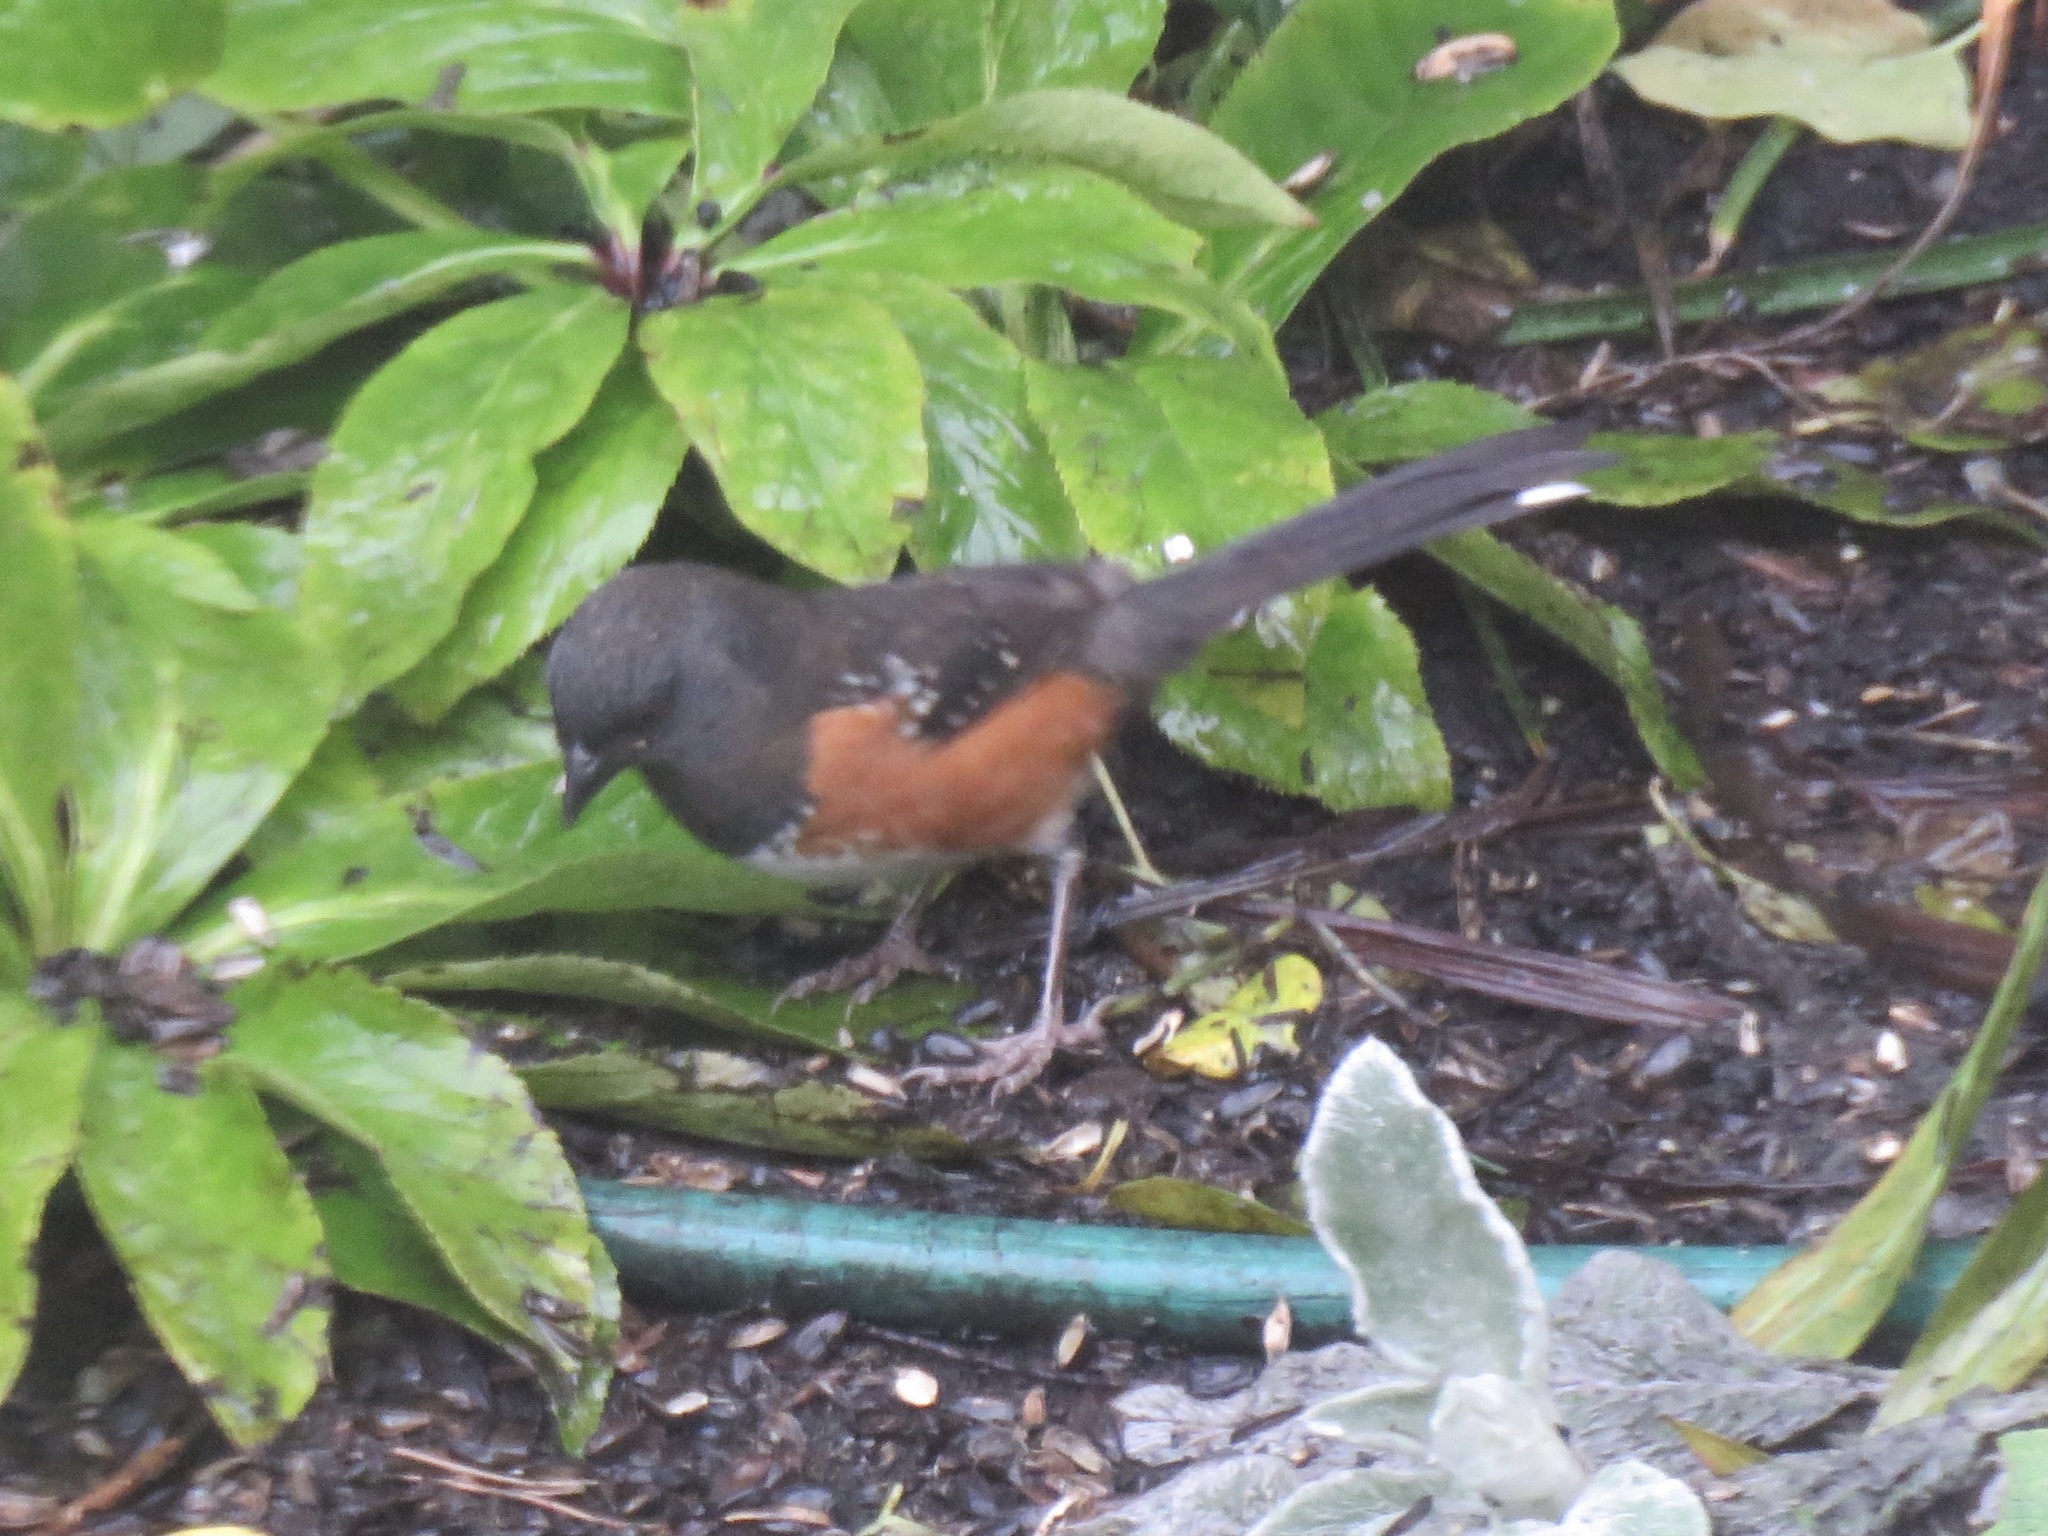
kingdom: Animalia
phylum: Chordata
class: Aves
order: Passeriformes
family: Passerellidae
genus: Pipilo
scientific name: Pipilo maculatus
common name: Spotted towhee
